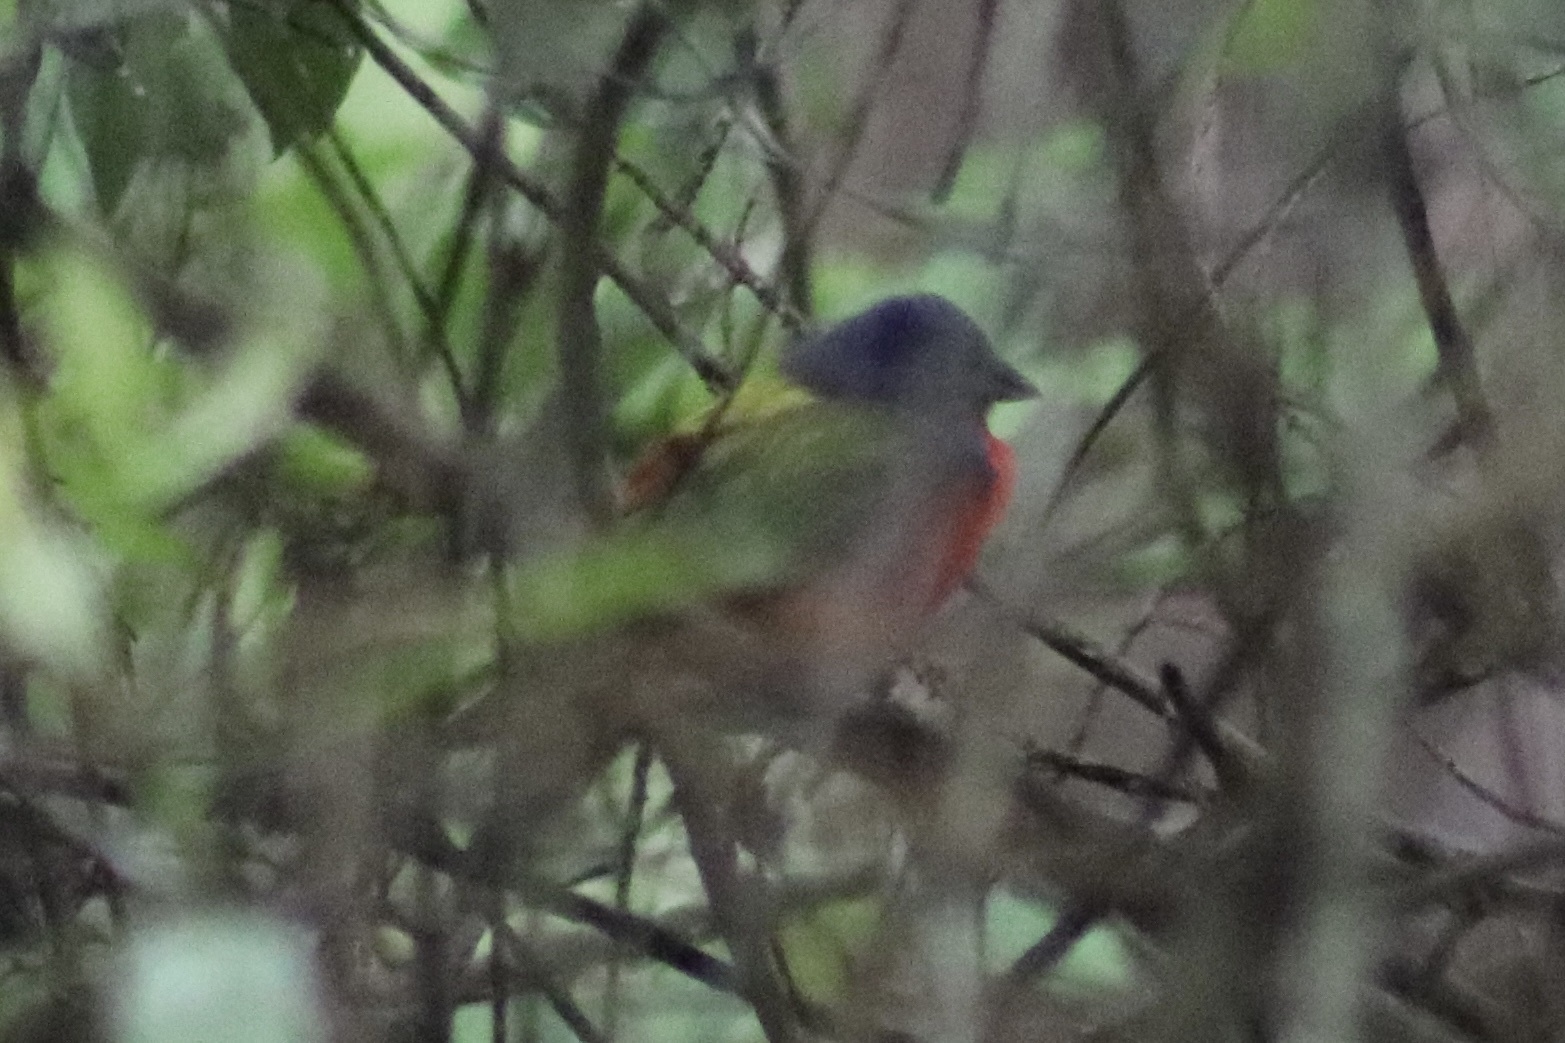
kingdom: Animalia
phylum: Chordata
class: Aves
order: Passeriformes
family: Cardinalidae
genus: Passerina
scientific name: Passerina ciris
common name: Painted bunting
